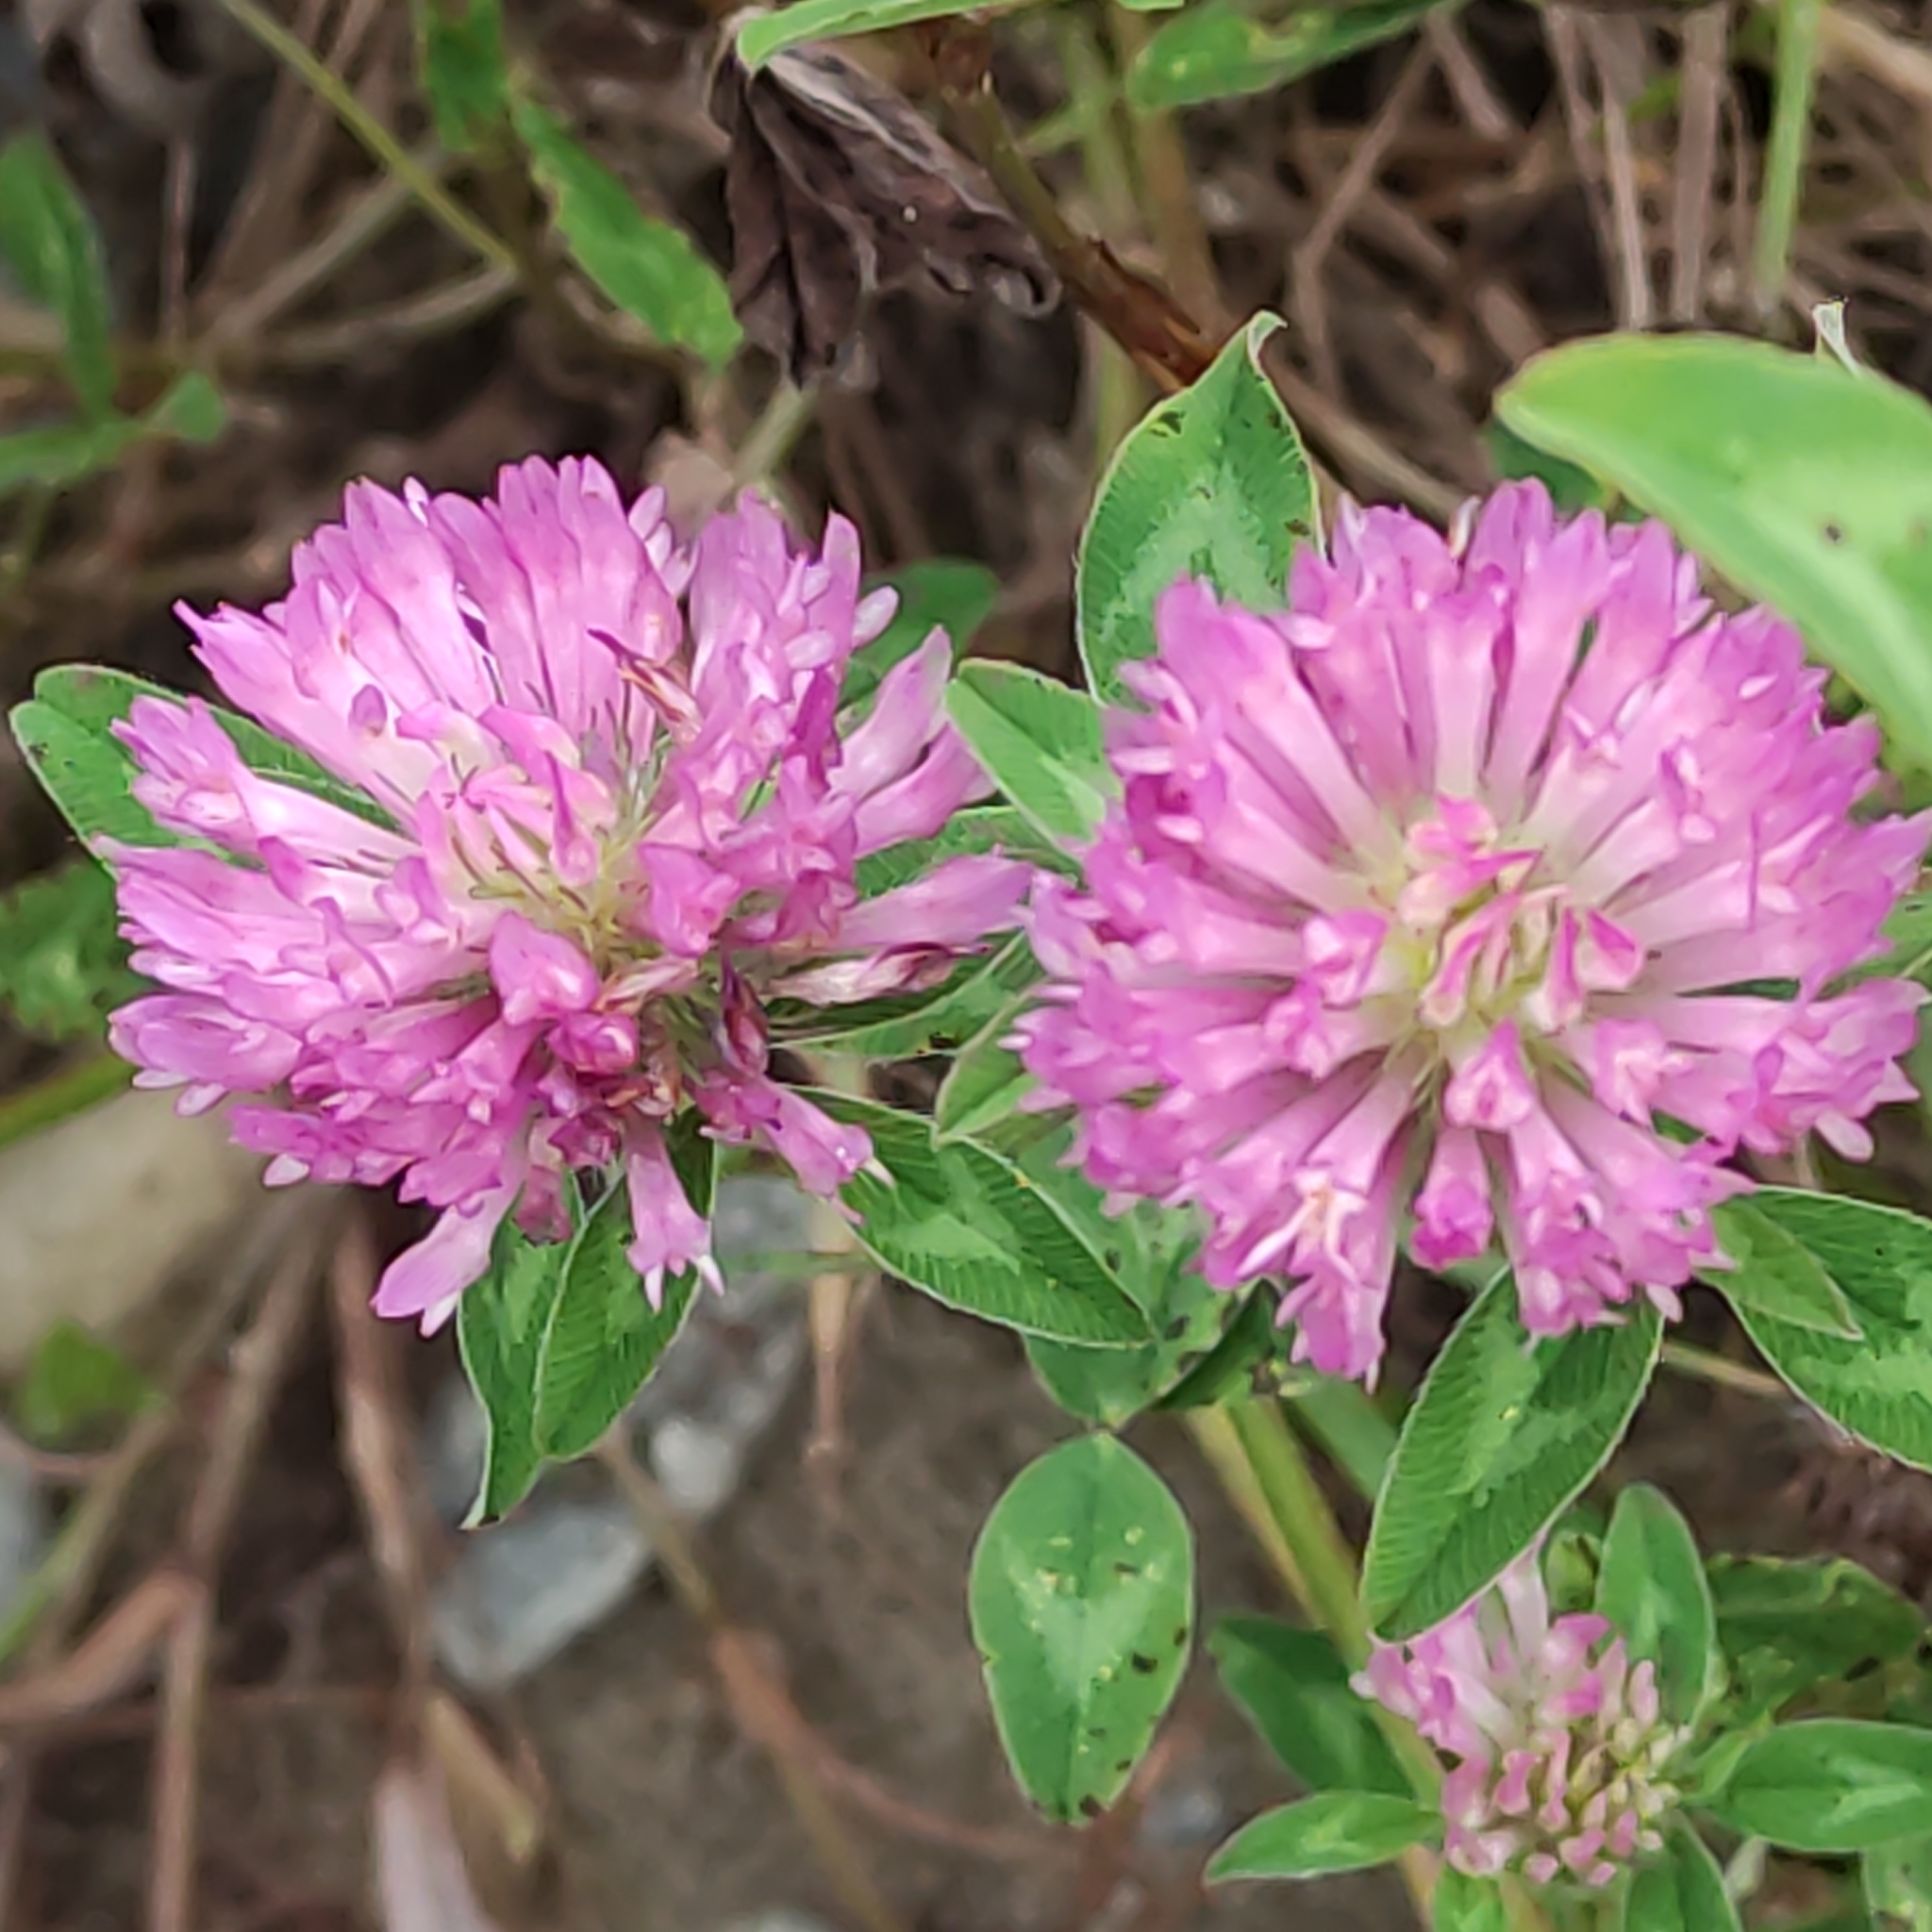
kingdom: Plantae
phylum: Tracheophyta
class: Magnoliopsida
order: Fabales
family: Fabaceae
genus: Trifolium
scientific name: Trifolium pratense
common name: Red clover
